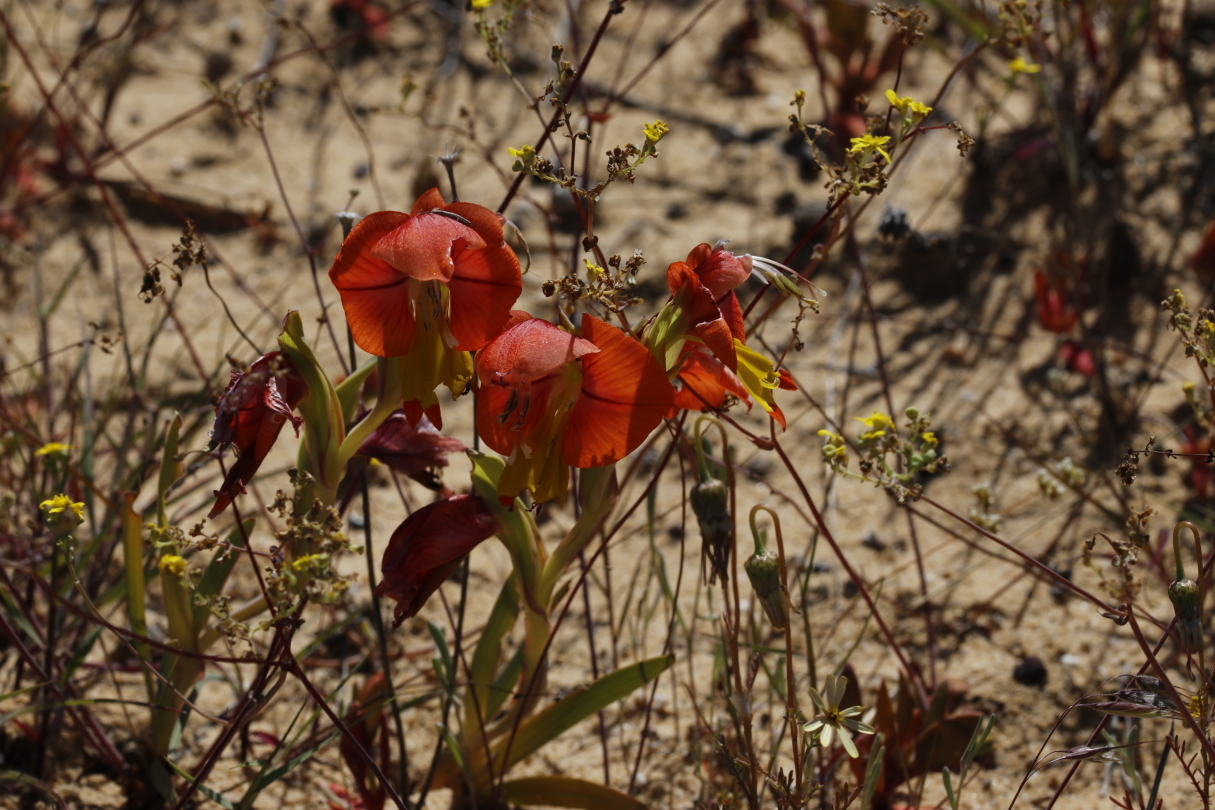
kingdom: Plantae
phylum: Tracheophyta
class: Liliopsida
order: Asparagales
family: Iridaceae
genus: Gladiolus
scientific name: Gladiolus alatus
